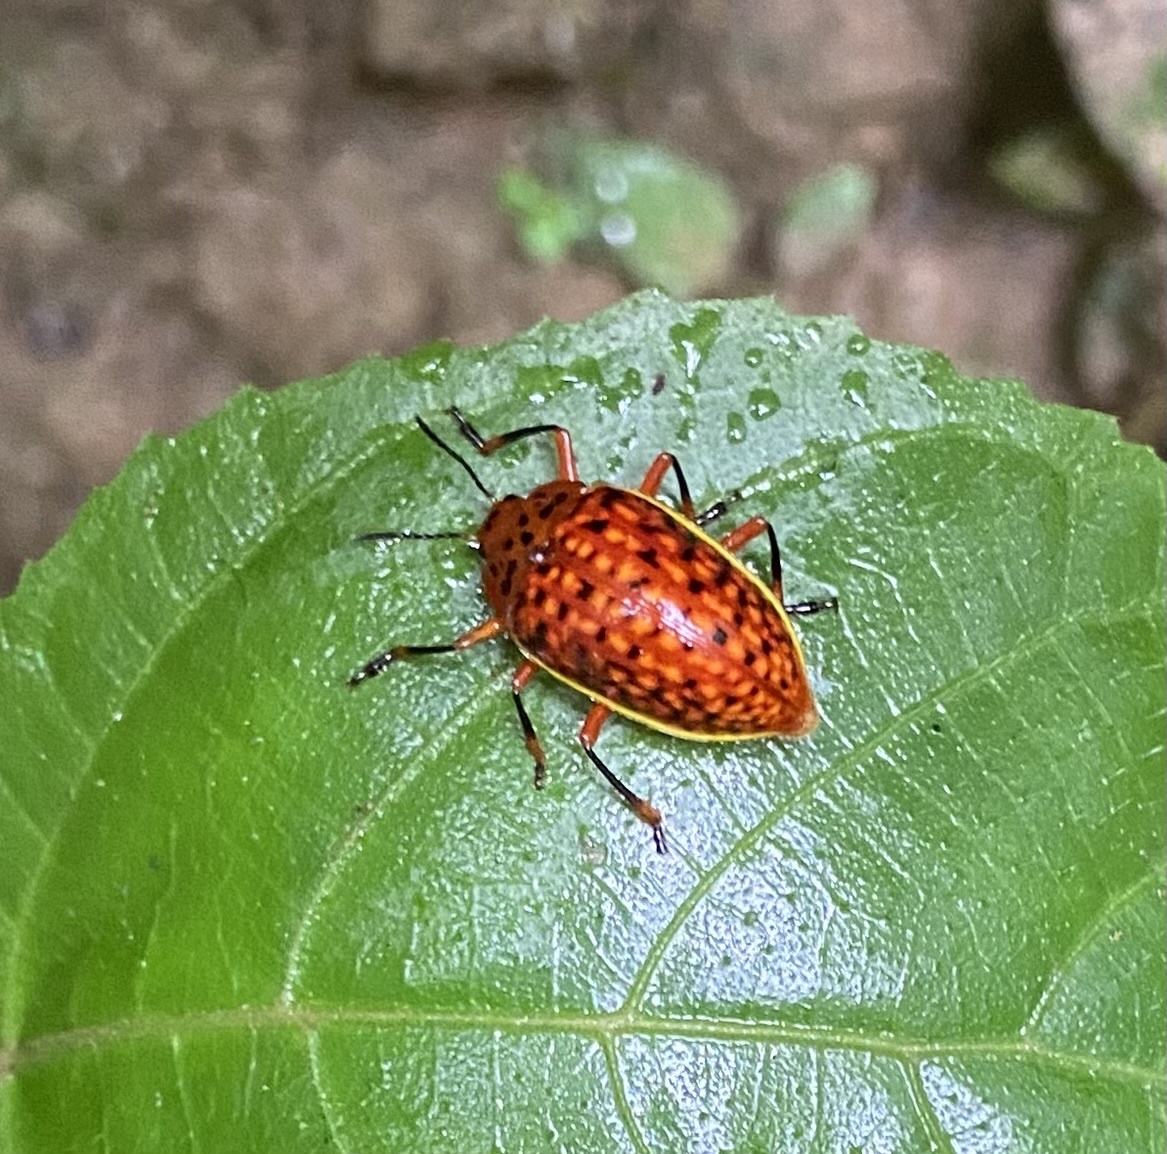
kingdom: Animalia
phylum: Arthropoda
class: Insecta
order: Coleoptera
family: Erotylidae
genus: Erotylina
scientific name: Erotylina
